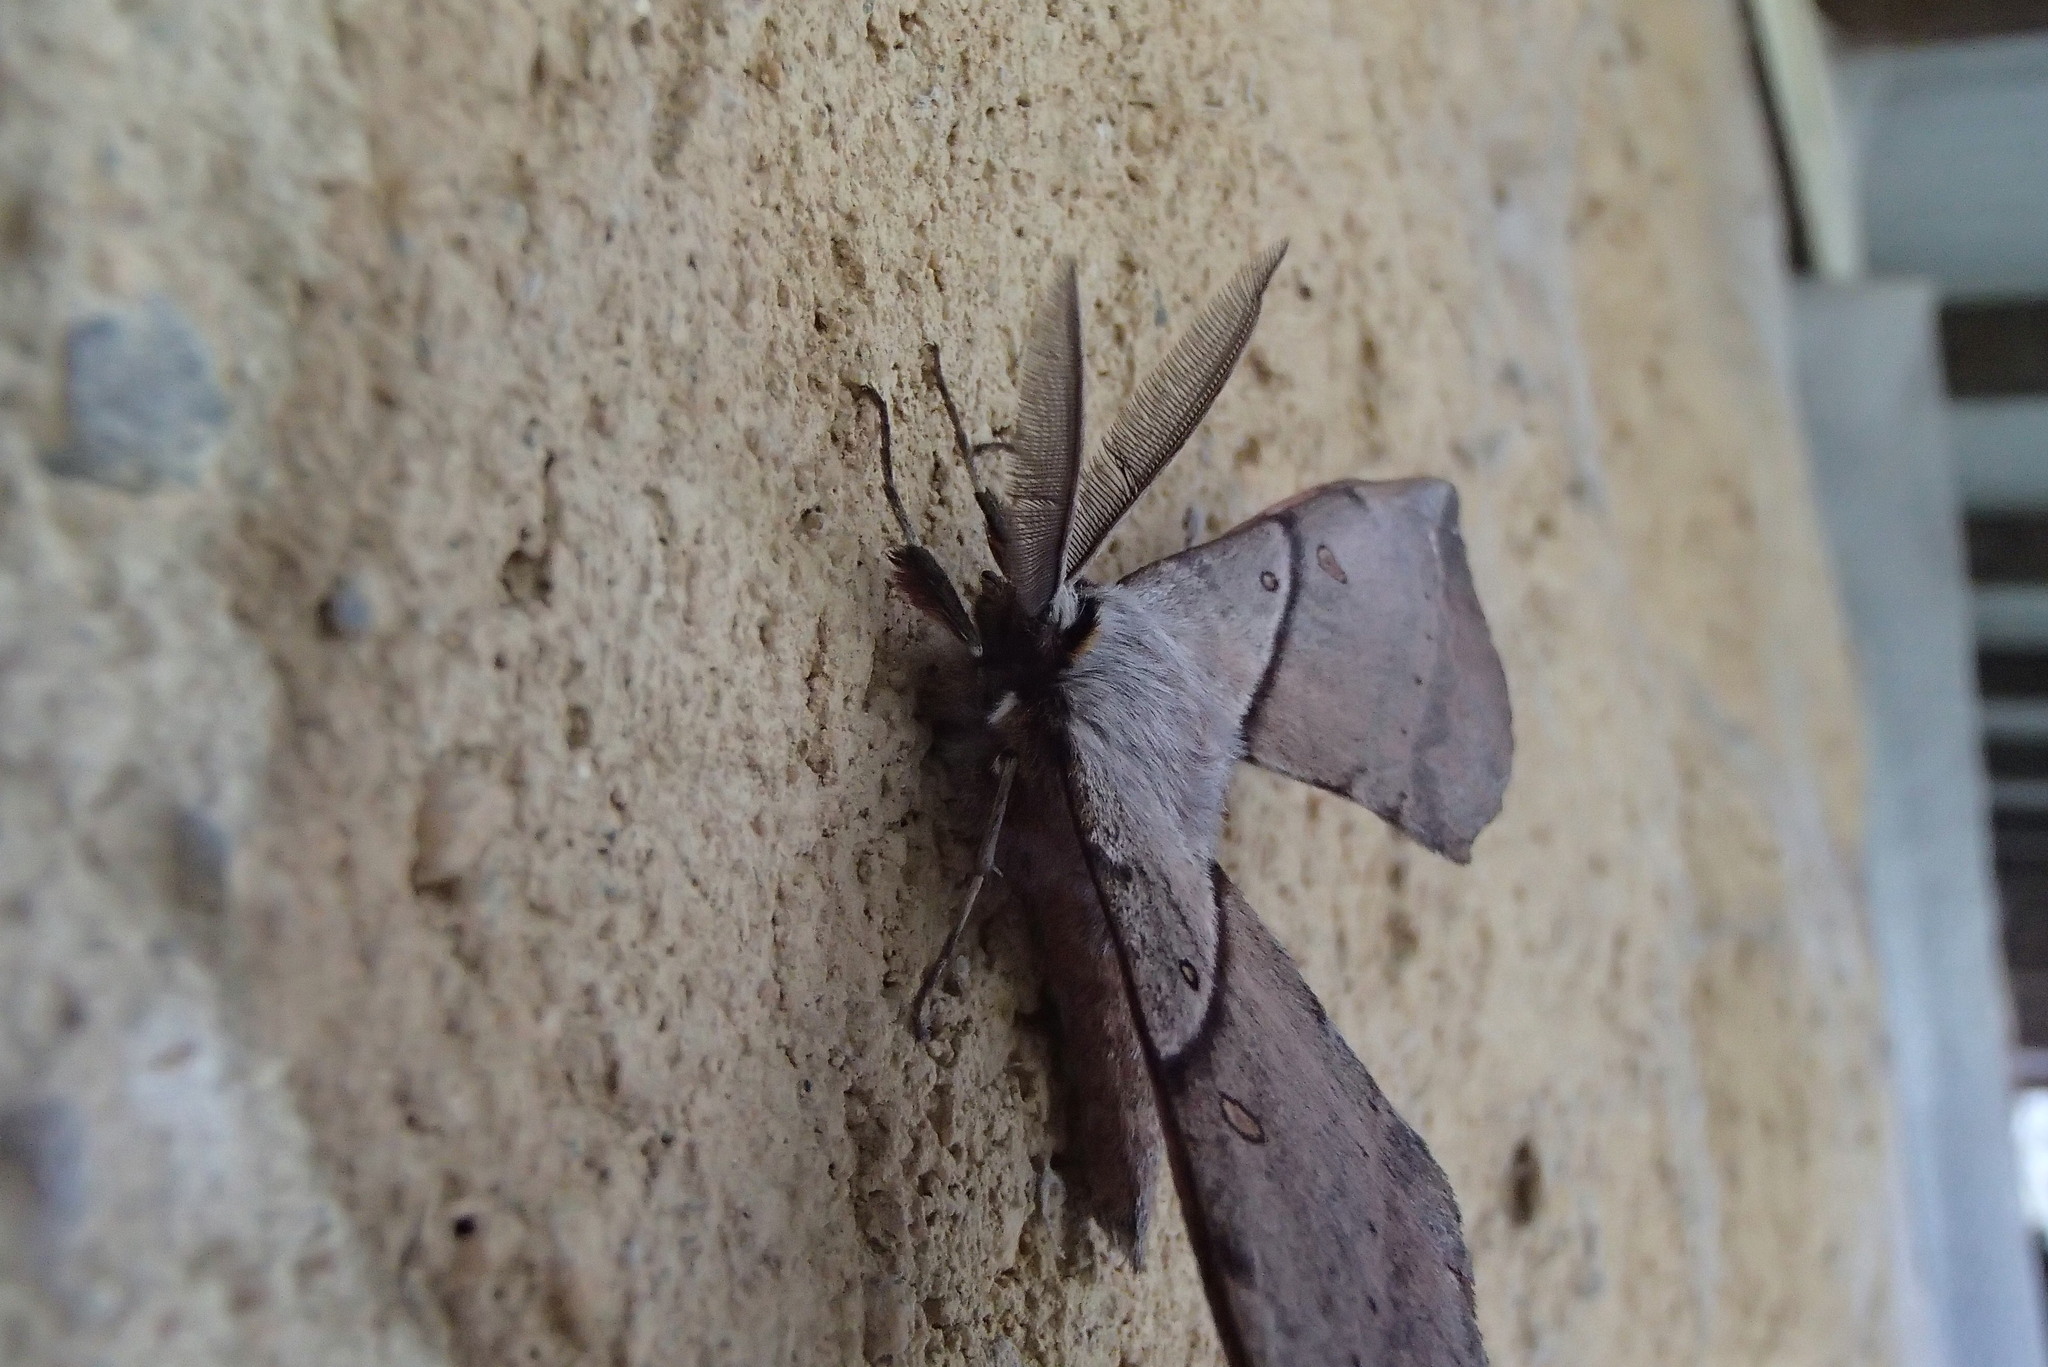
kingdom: Animalia
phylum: Arthropoda
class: Insecta
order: Lepidoptera
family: Anthelidae
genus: Chelepteryx
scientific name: Chelepteryx chalepteryx
